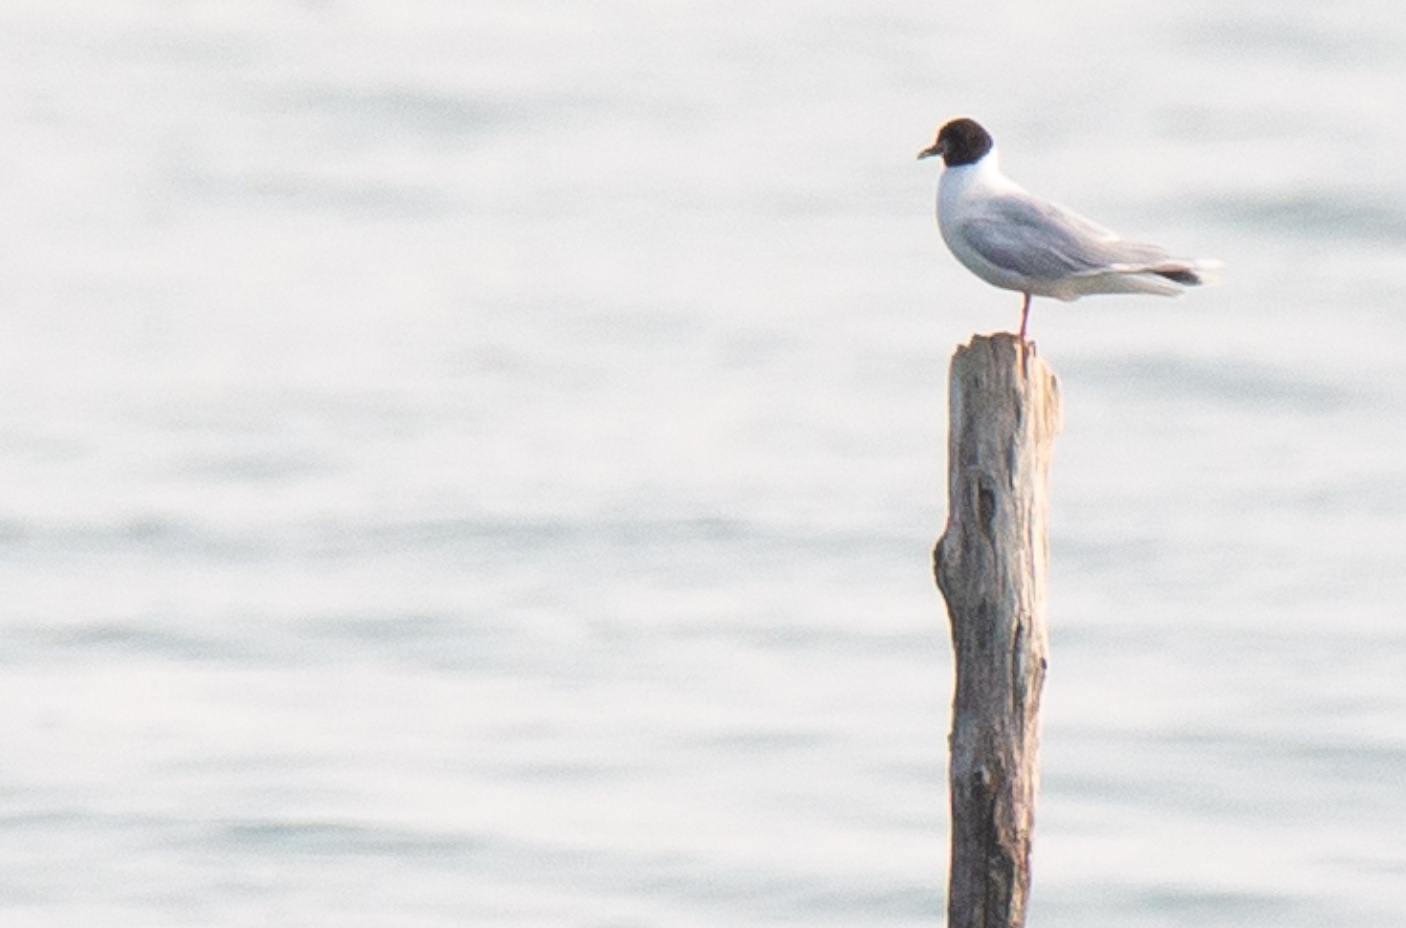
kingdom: Animalia
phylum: Chordata
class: Aves
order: Charadriiformes
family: Laridae
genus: Hydrocoloeus
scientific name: Hydrocoloeus minutus
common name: Little gull
